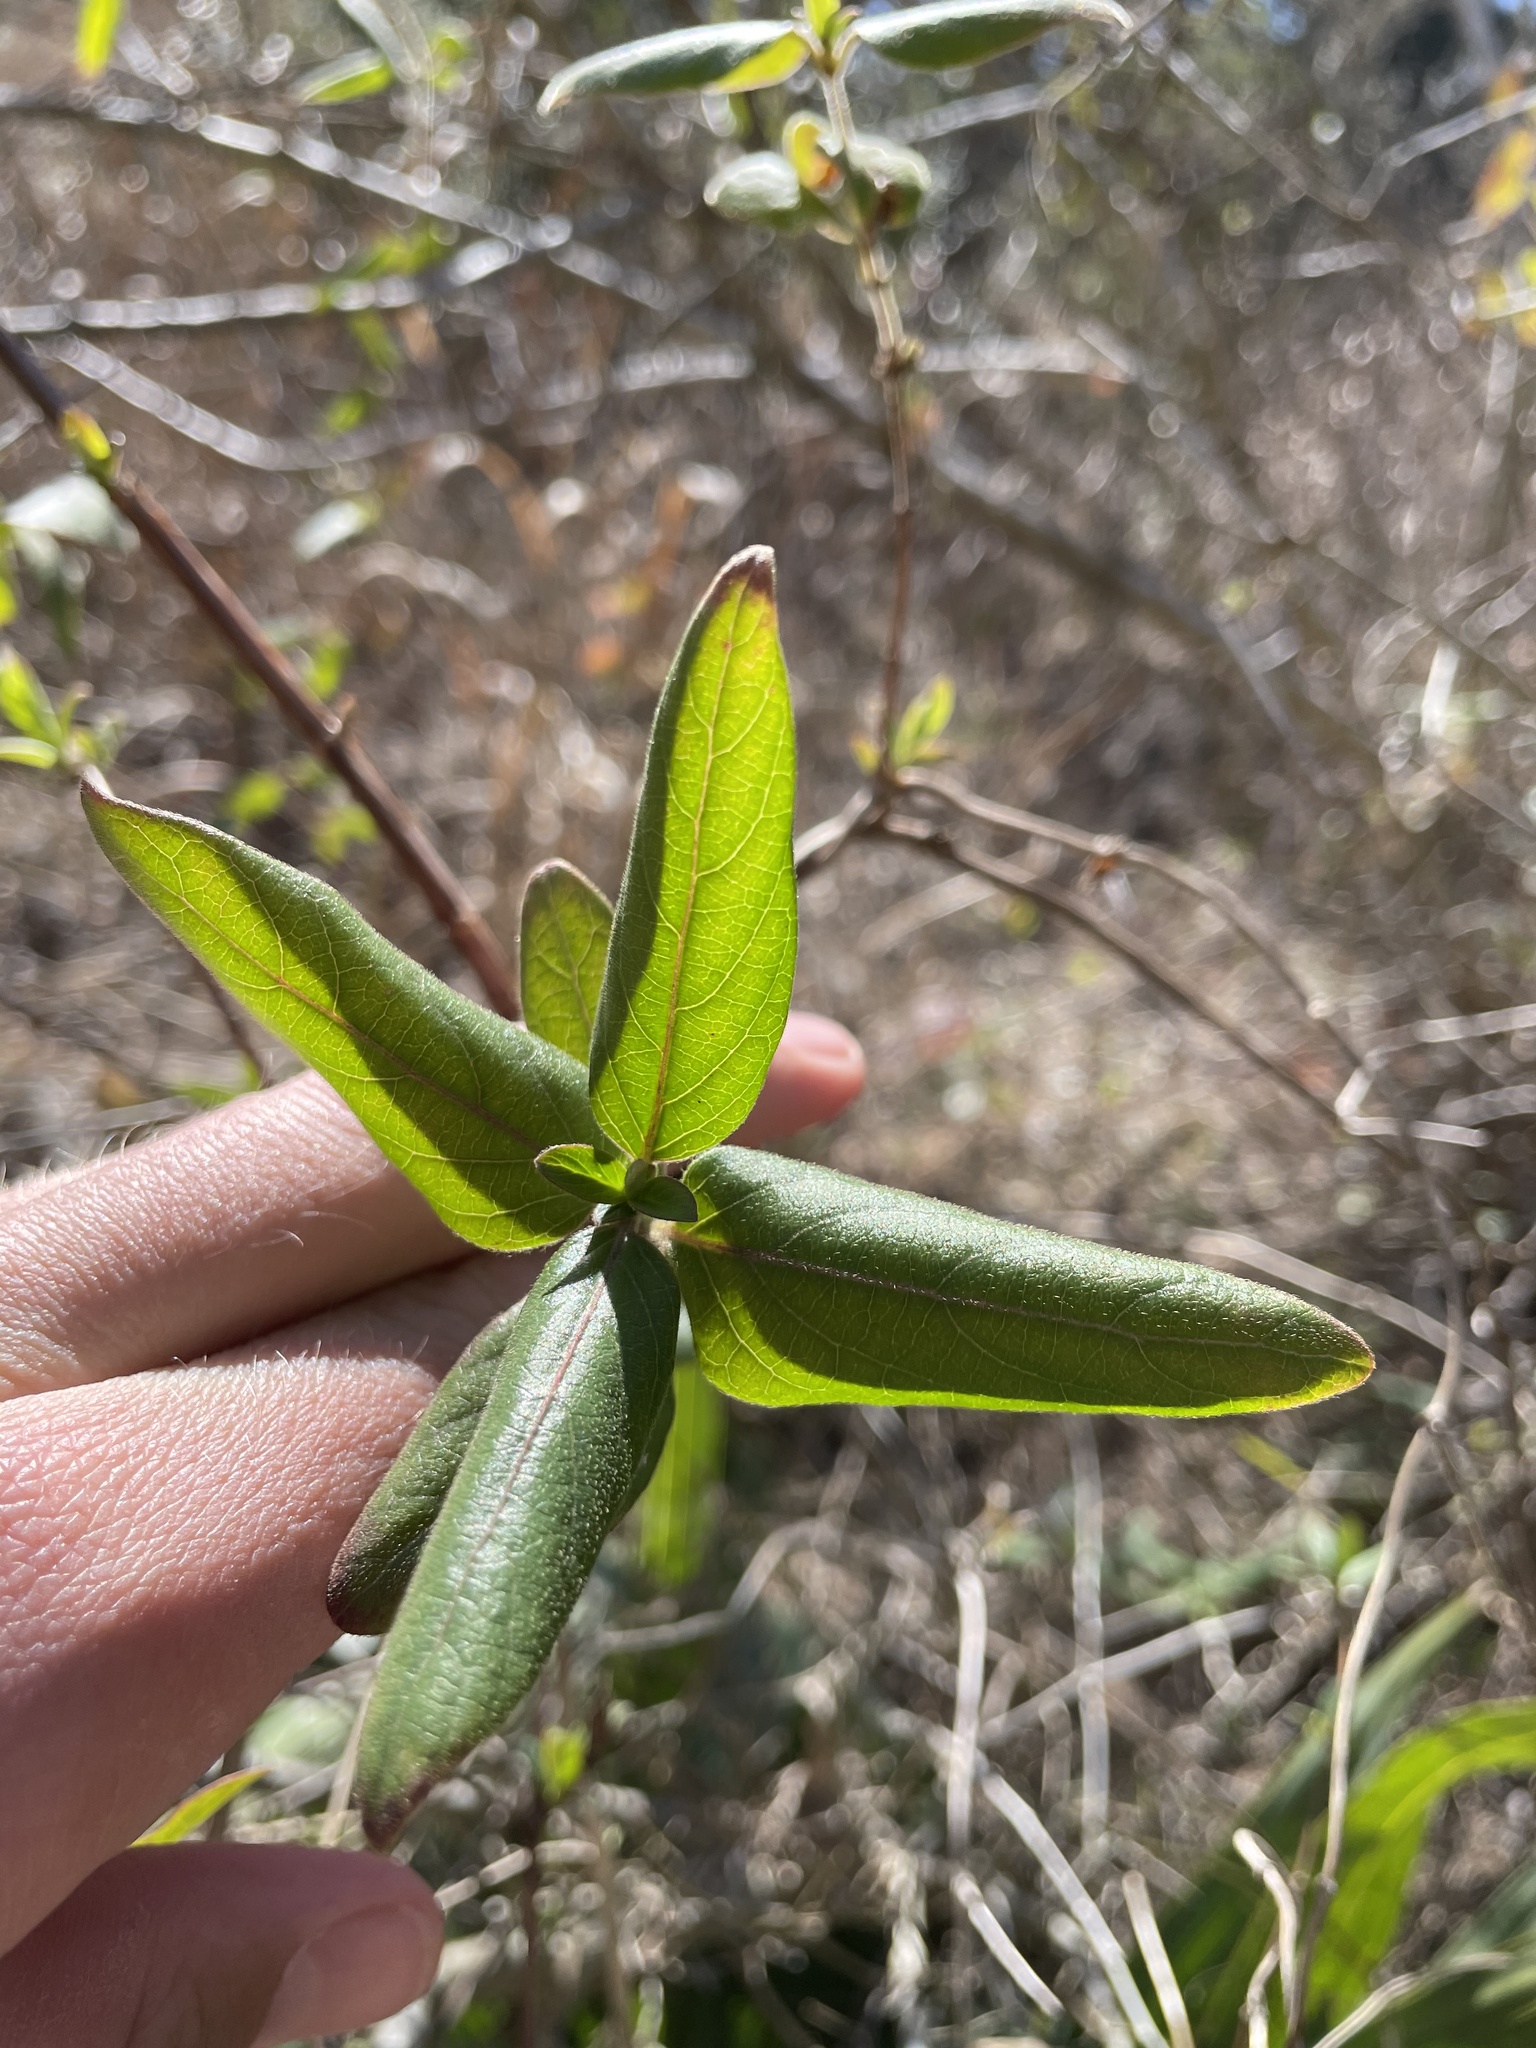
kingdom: Plantae
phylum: Tracheophyta
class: Magnoliopsida
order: Dipsacales
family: Caprifoliaceae
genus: Lonicera
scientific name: Lonicera japonica
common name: Japanese honeysuckle
